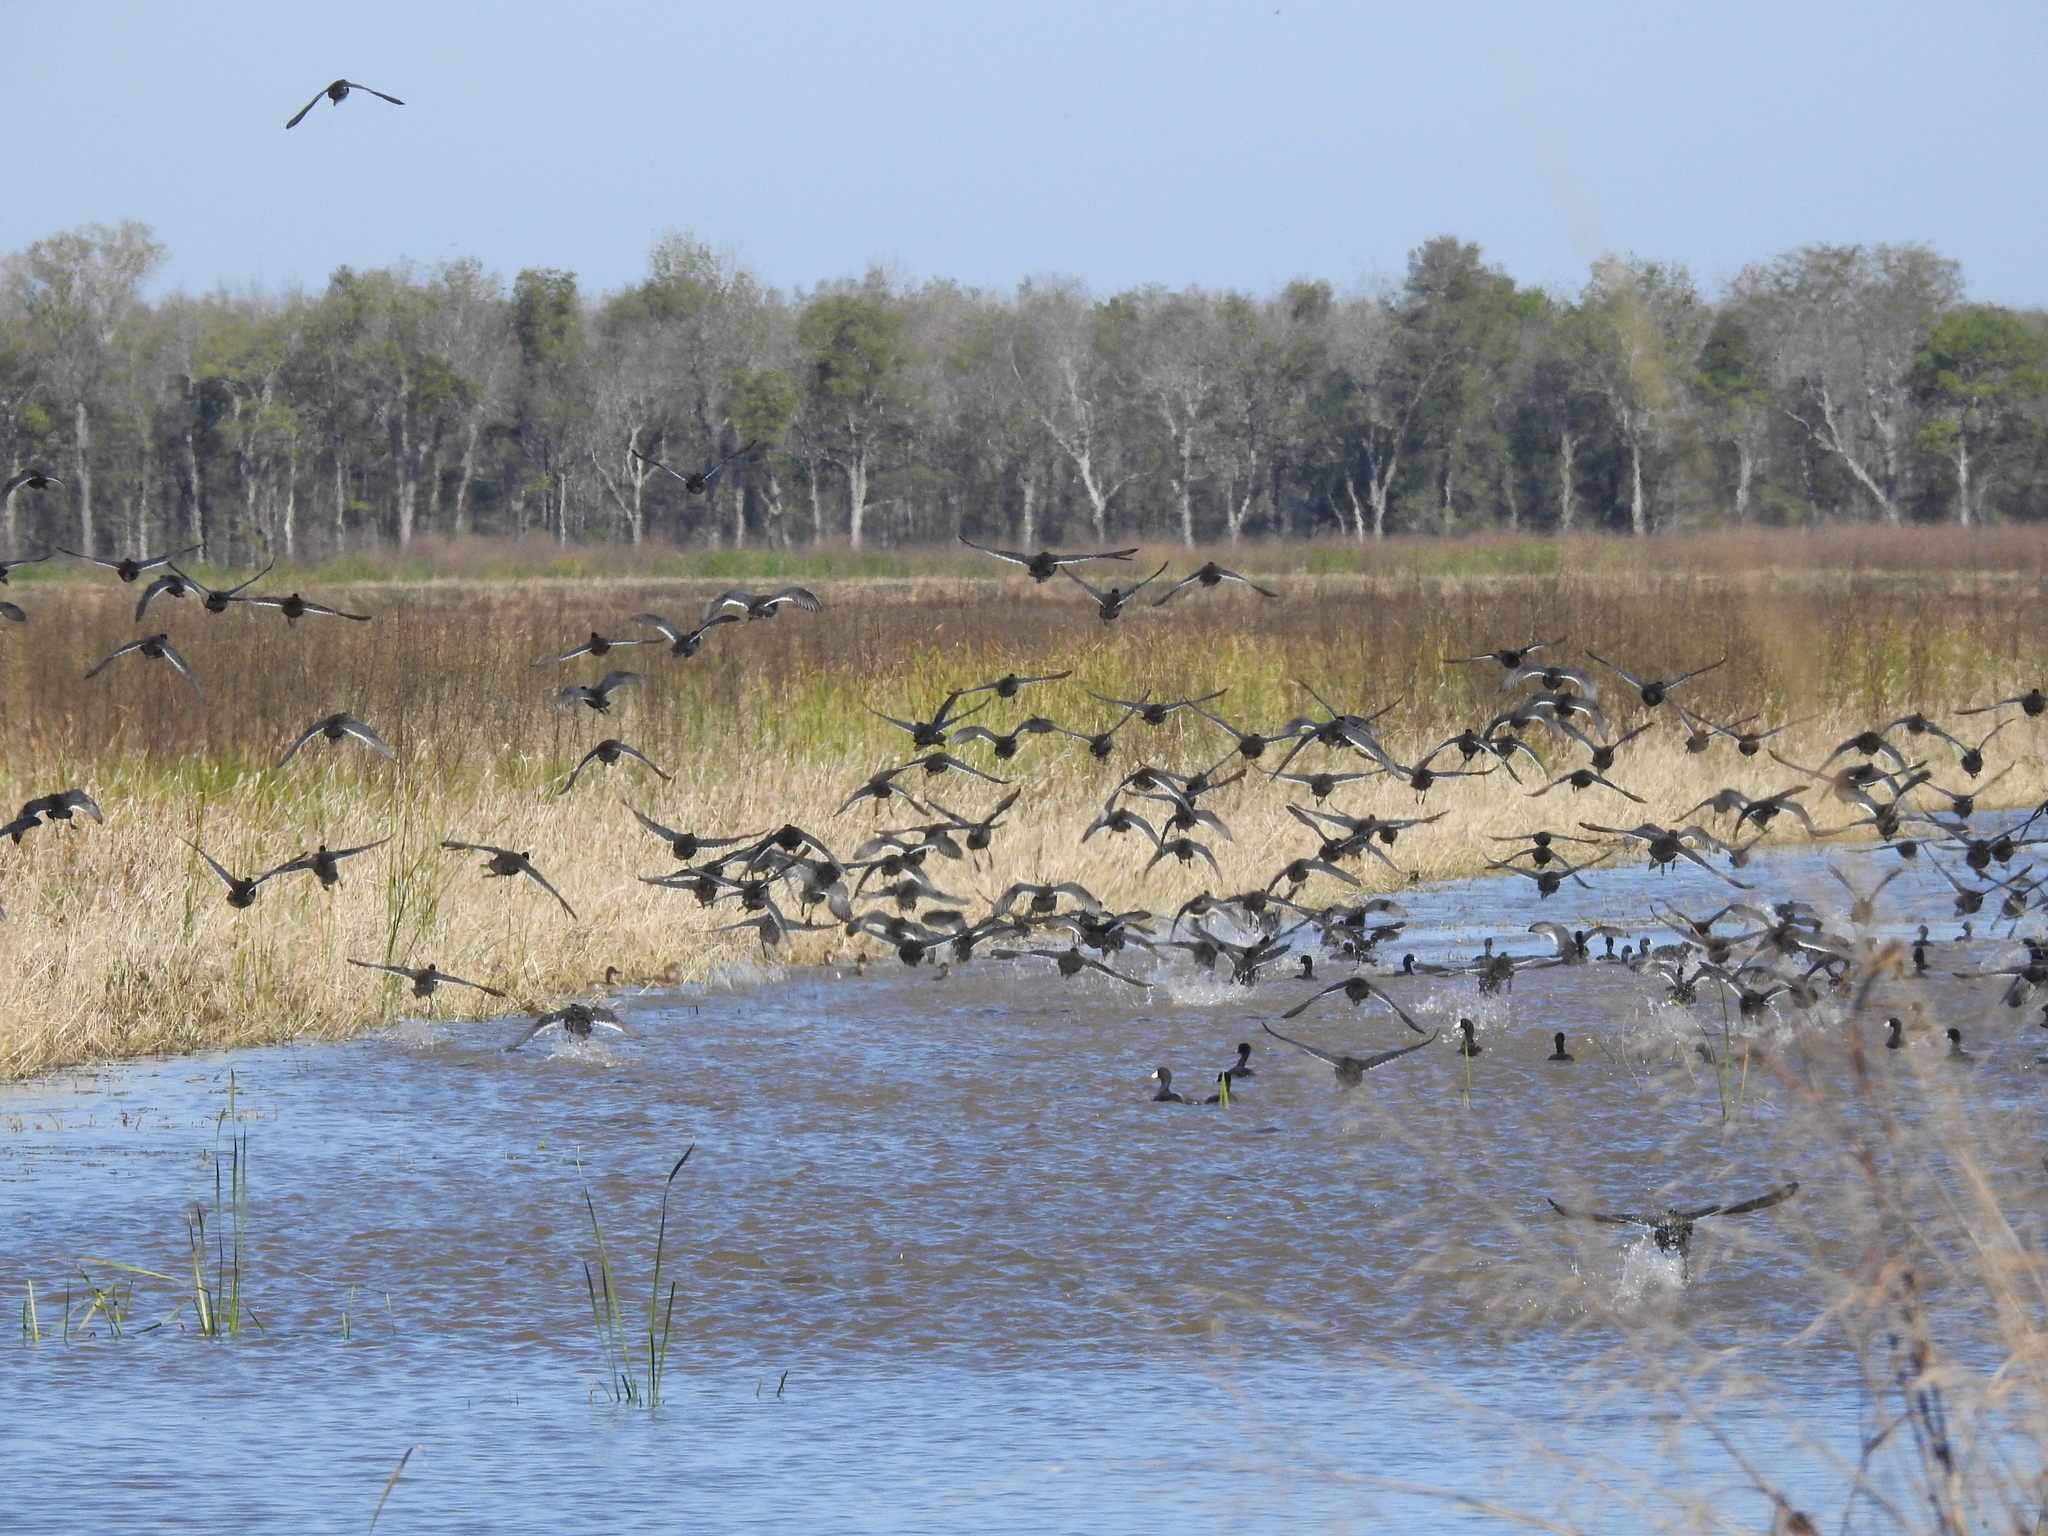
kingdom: Animalia
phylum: Chordata
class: Aves
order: Gruiformes
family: Rallidae
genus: Fulica
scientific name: Fulica americana
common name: American coot
